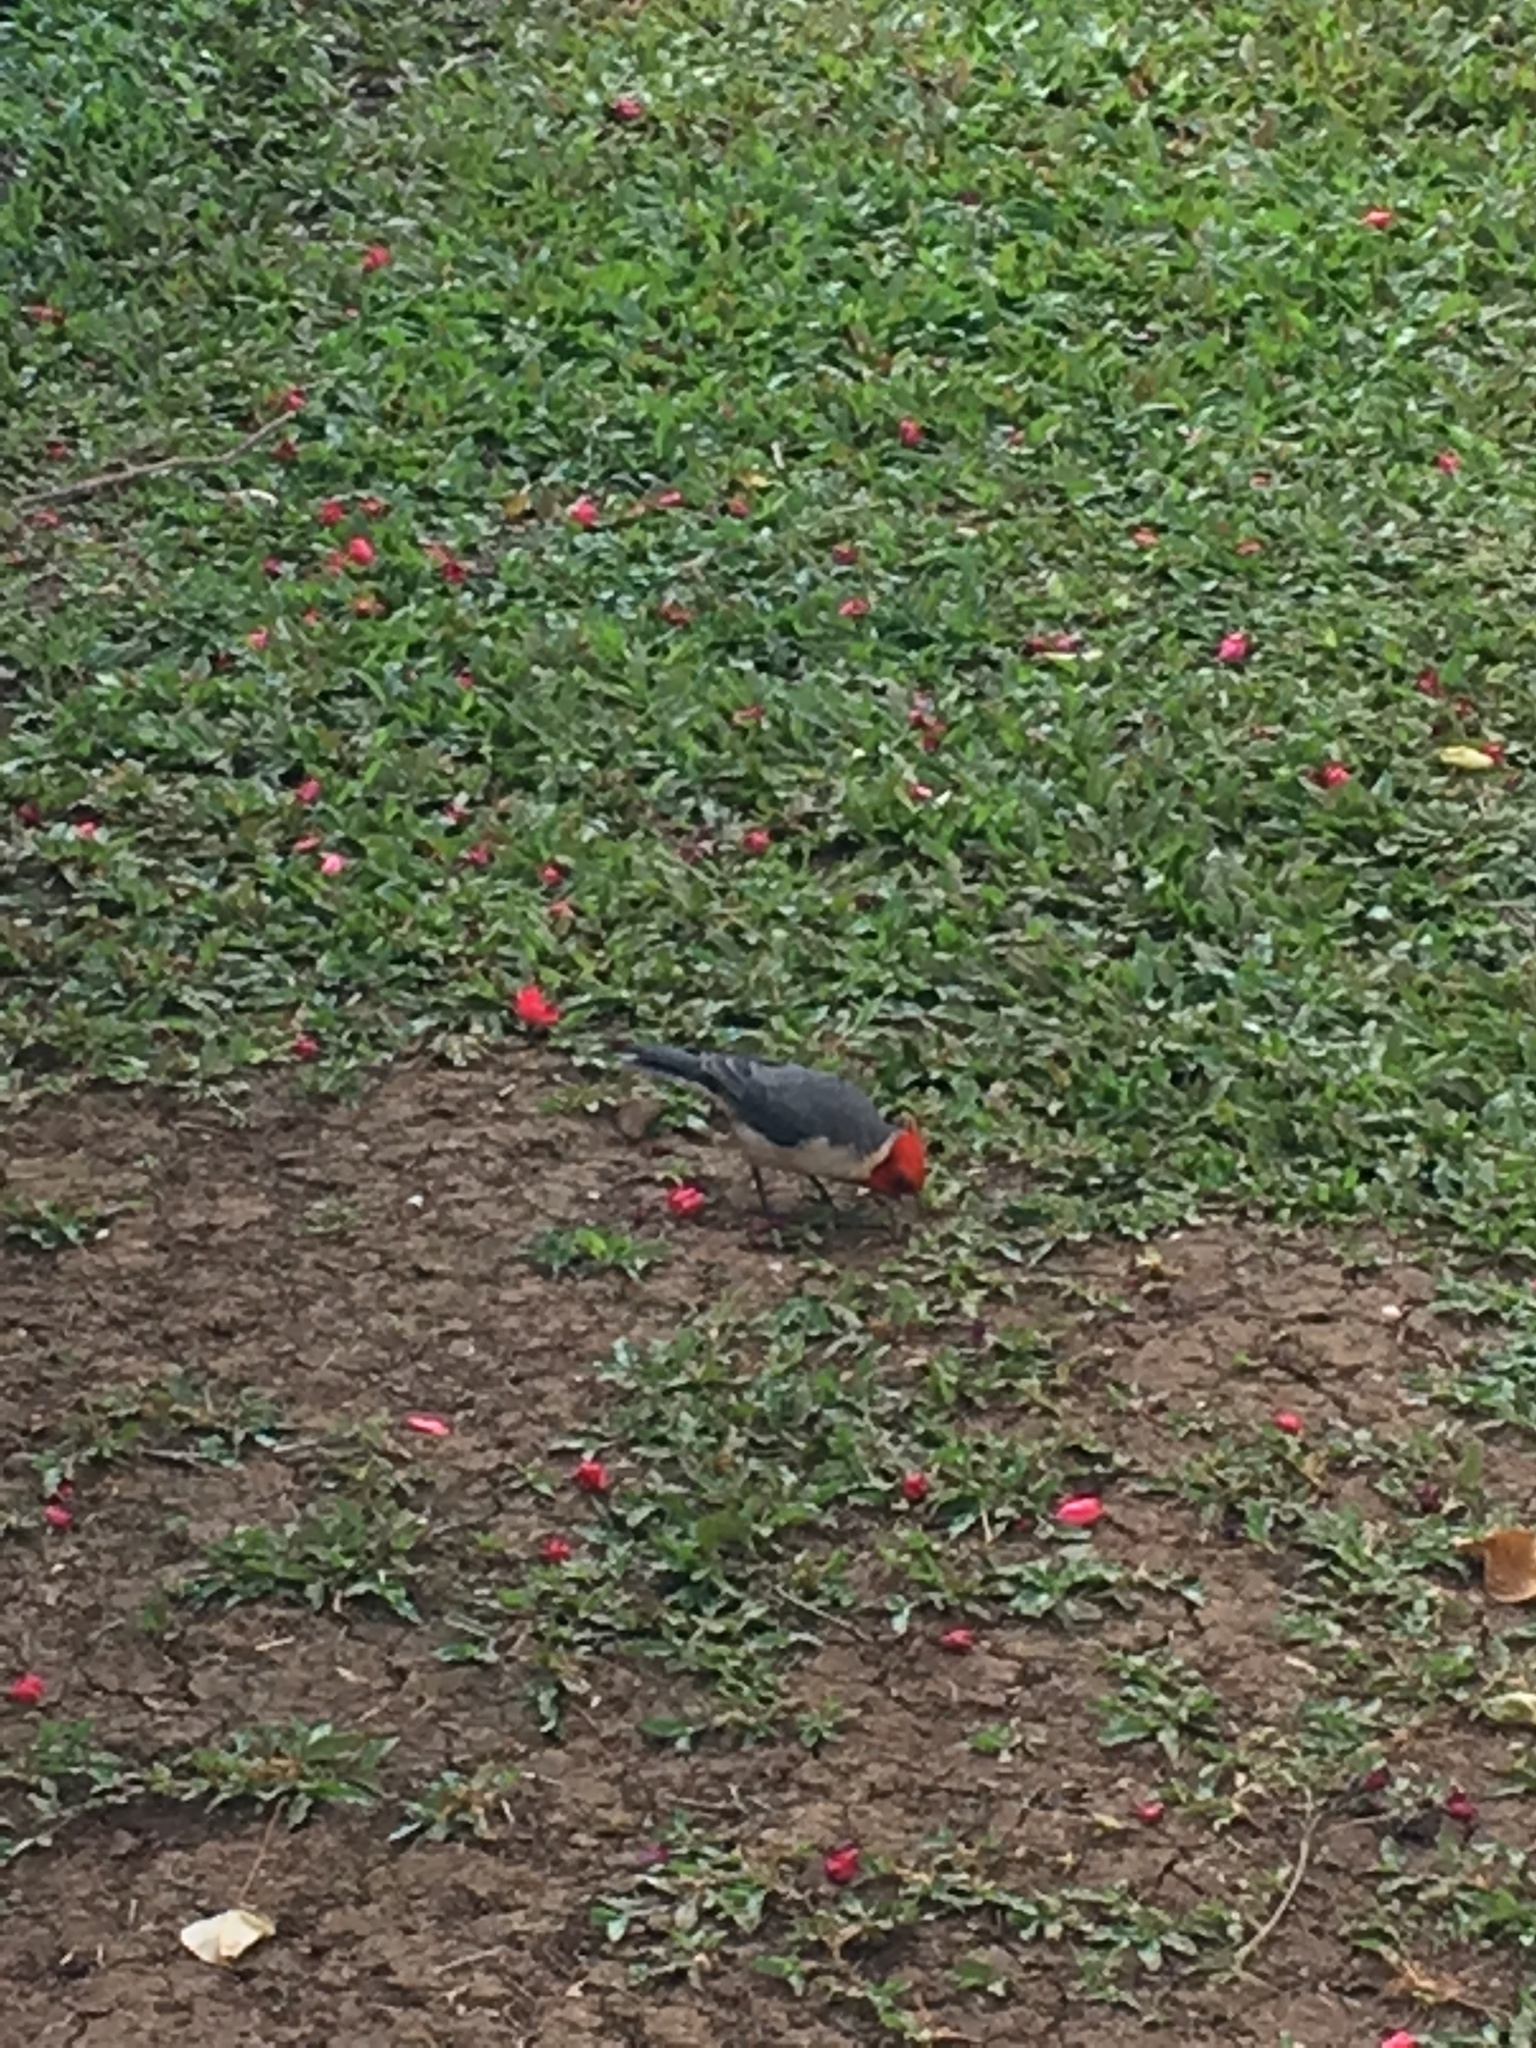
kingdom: Animalia
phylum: Chordata
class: Aves
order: Passeriformes
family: Thraupidae
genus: Paroaria
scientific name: Paroaria coronata
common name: Red-crested cardinal
